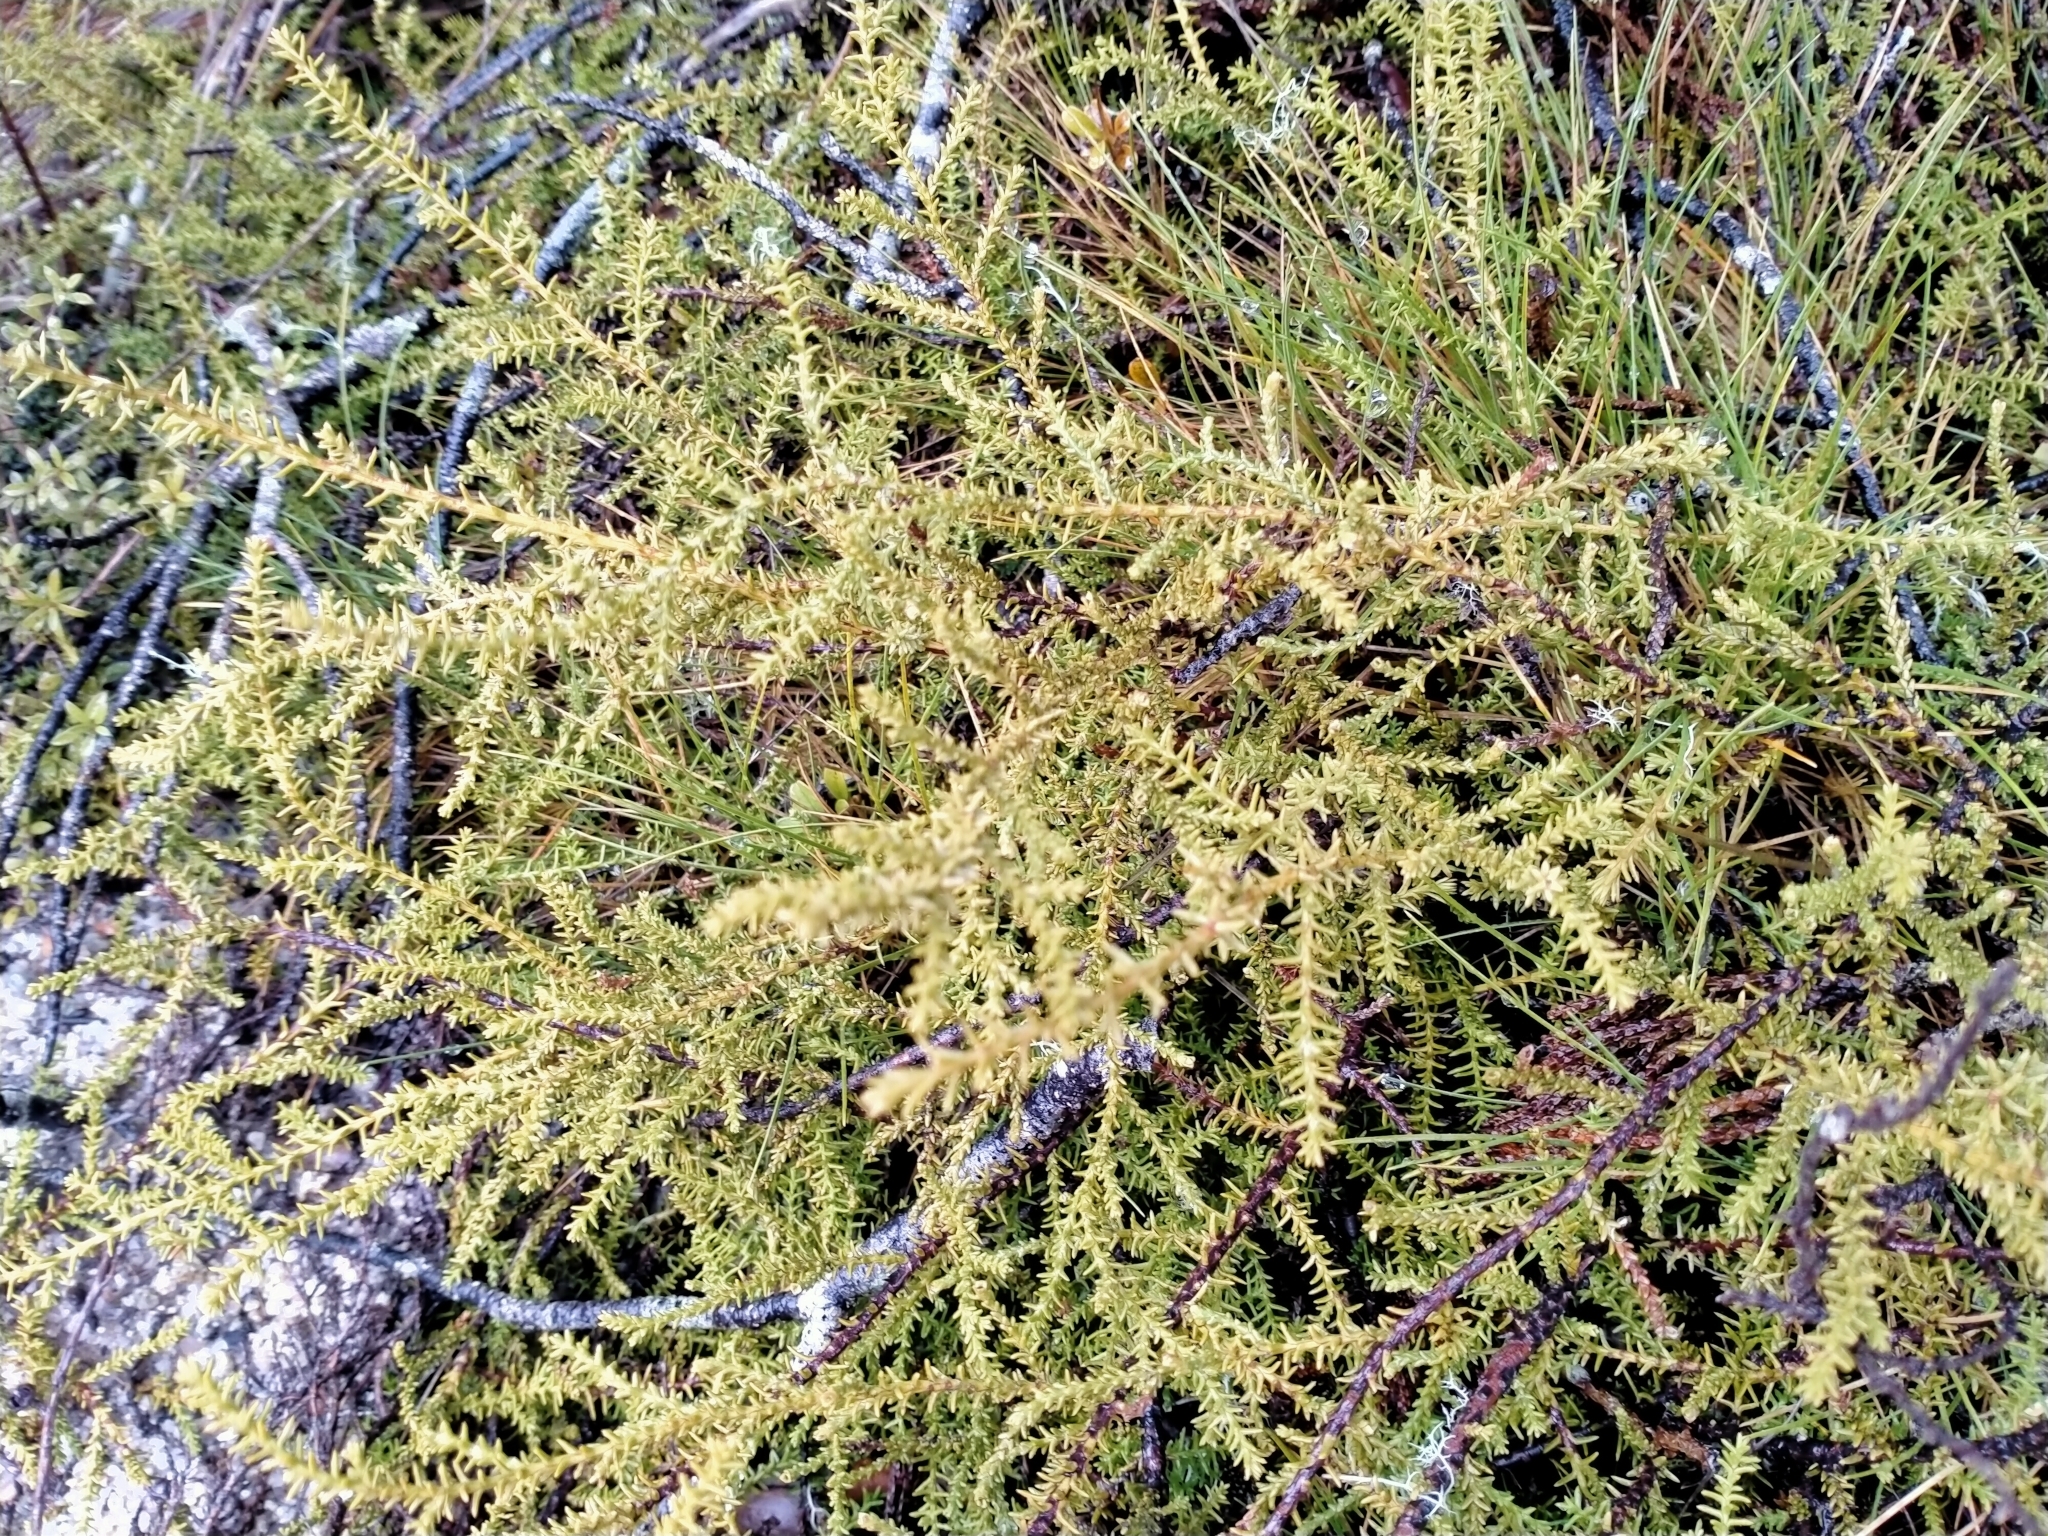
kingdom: Plantae
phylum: Tracheophyta
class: Pinopsida
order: Pinales
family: Podocarpaceae
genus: Lepidothamnus
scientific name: Lepidothamnus laxifolius
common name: Pygmy pine
